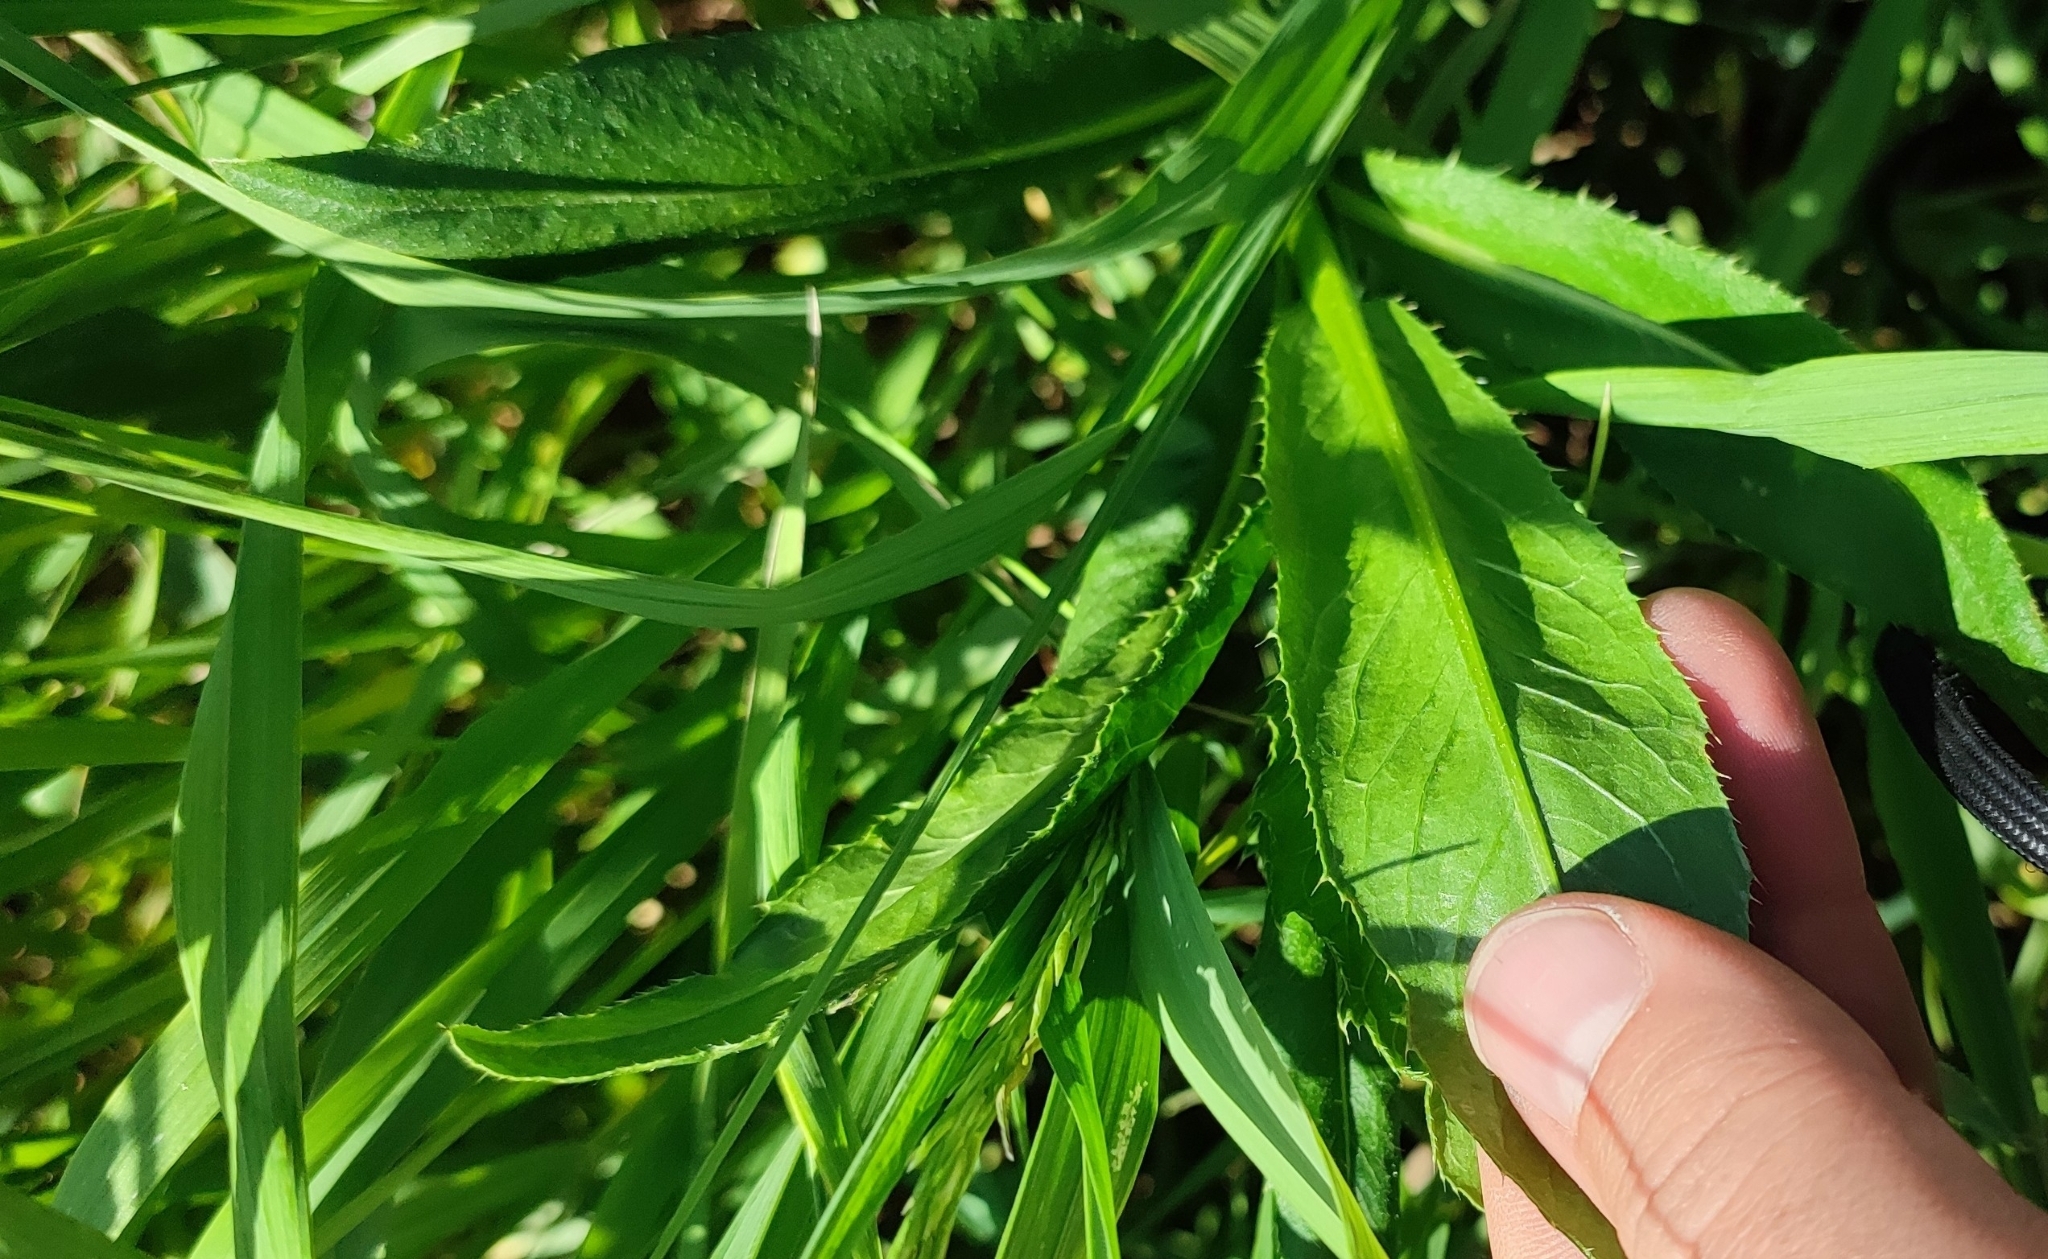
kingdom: Plantae
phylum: Tracheophyta
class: Magnoliopsida
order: Asterales
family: Asteraceae
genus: Cirsium
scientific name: Cirsium arvense
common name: Creeping thistle
